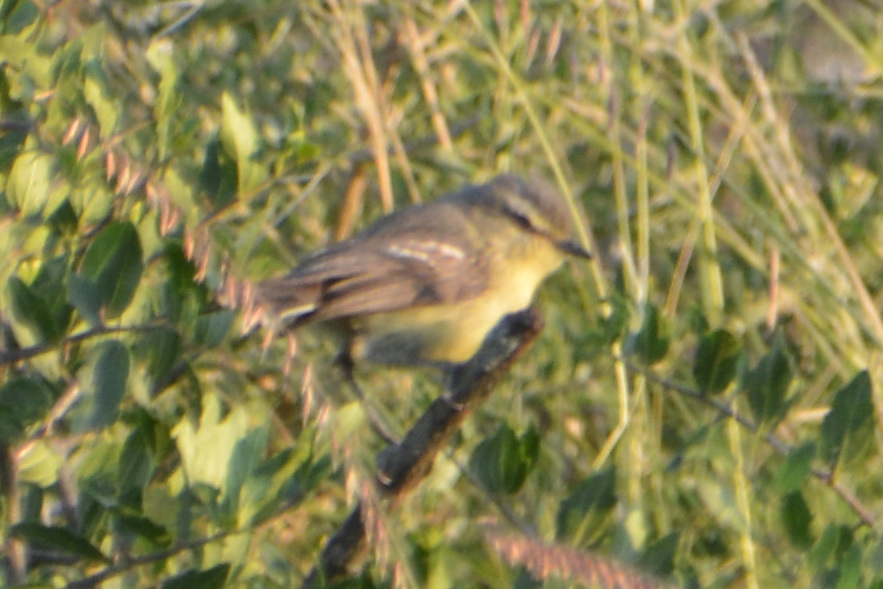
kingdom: Animalia
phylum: Chordata
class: Aves
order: Passeriformes
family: Tyrannidae
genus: Stigmatura
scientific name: Stigmatura budytoides
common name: Greater wagtail-tyrant
